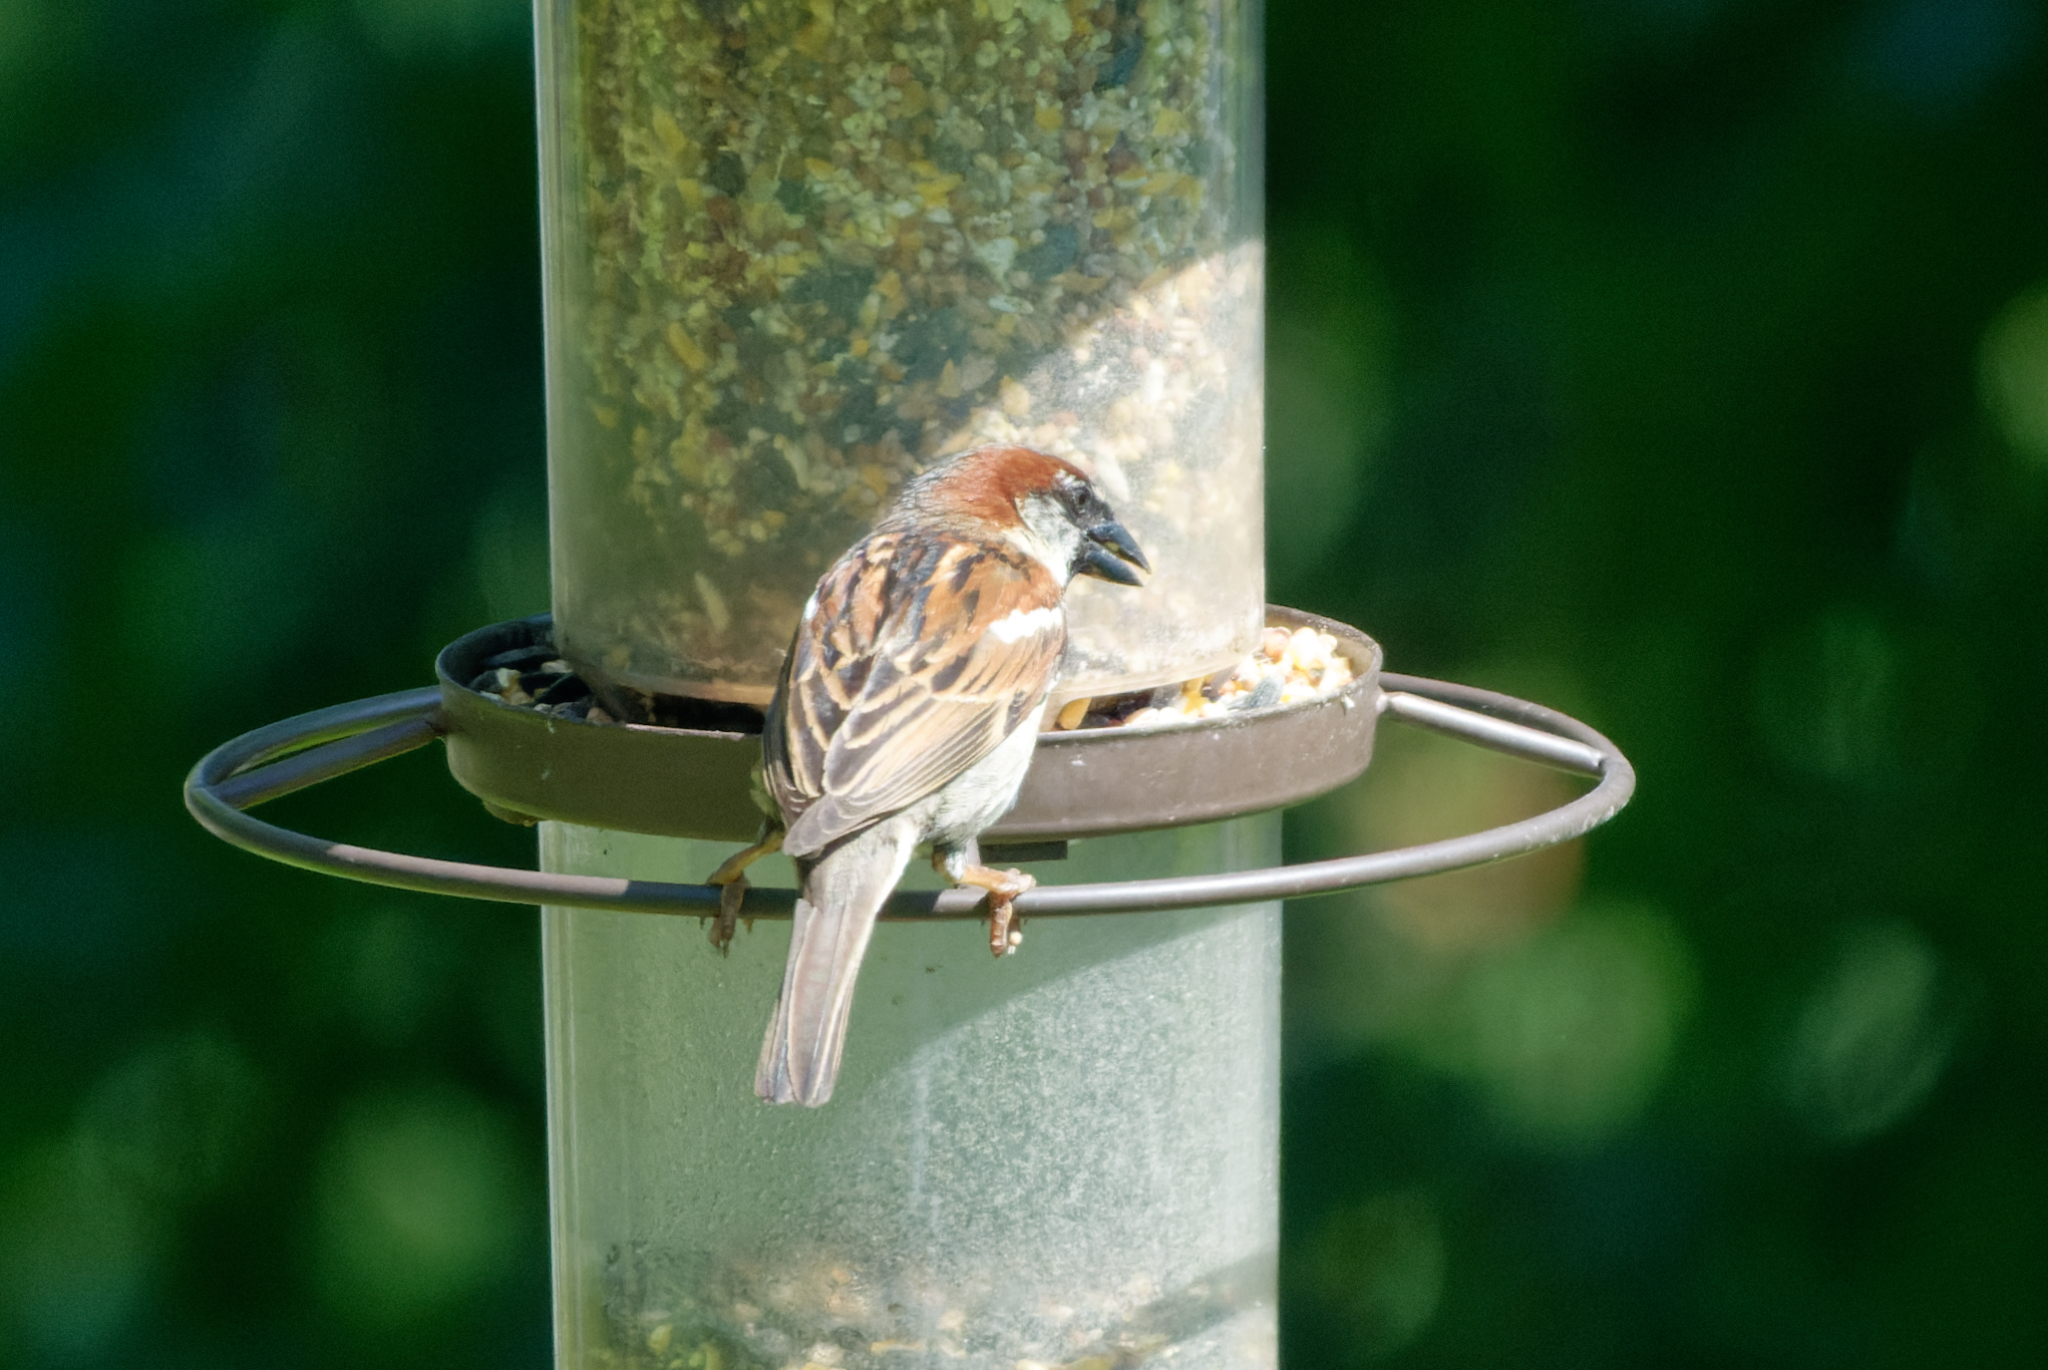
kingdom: Animalia
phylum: Chordata
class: Aves
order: Passeriformes
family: Passeridae
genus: Passer
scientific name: Passer domesticus
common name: House sparrow
